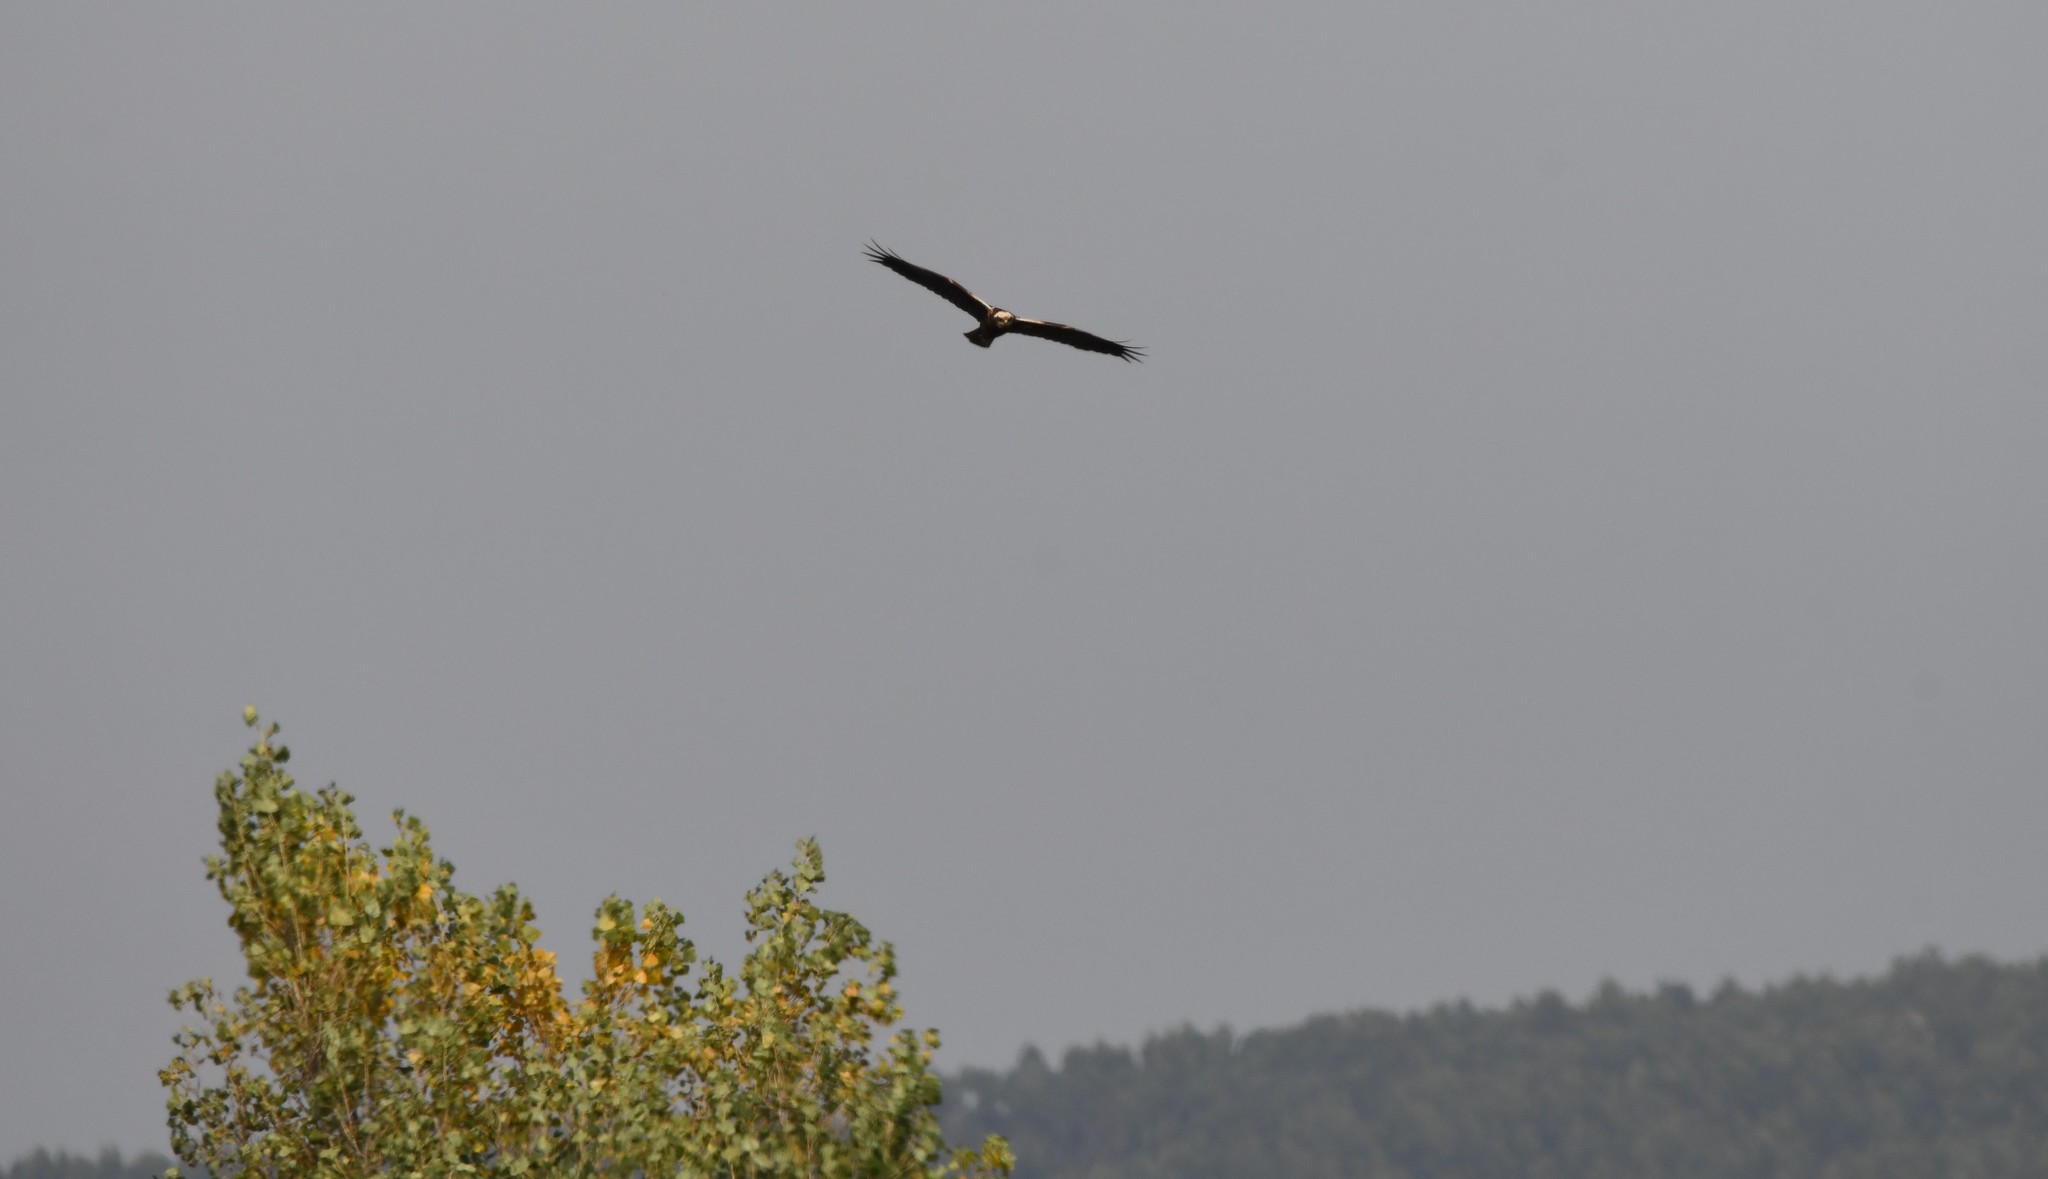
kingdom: Animalia
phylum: Chordata
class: Aves
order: Accipitriformes
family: Accipitridae
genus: Circus
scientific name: Circus aeruginosus
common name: Western marsh harrier
